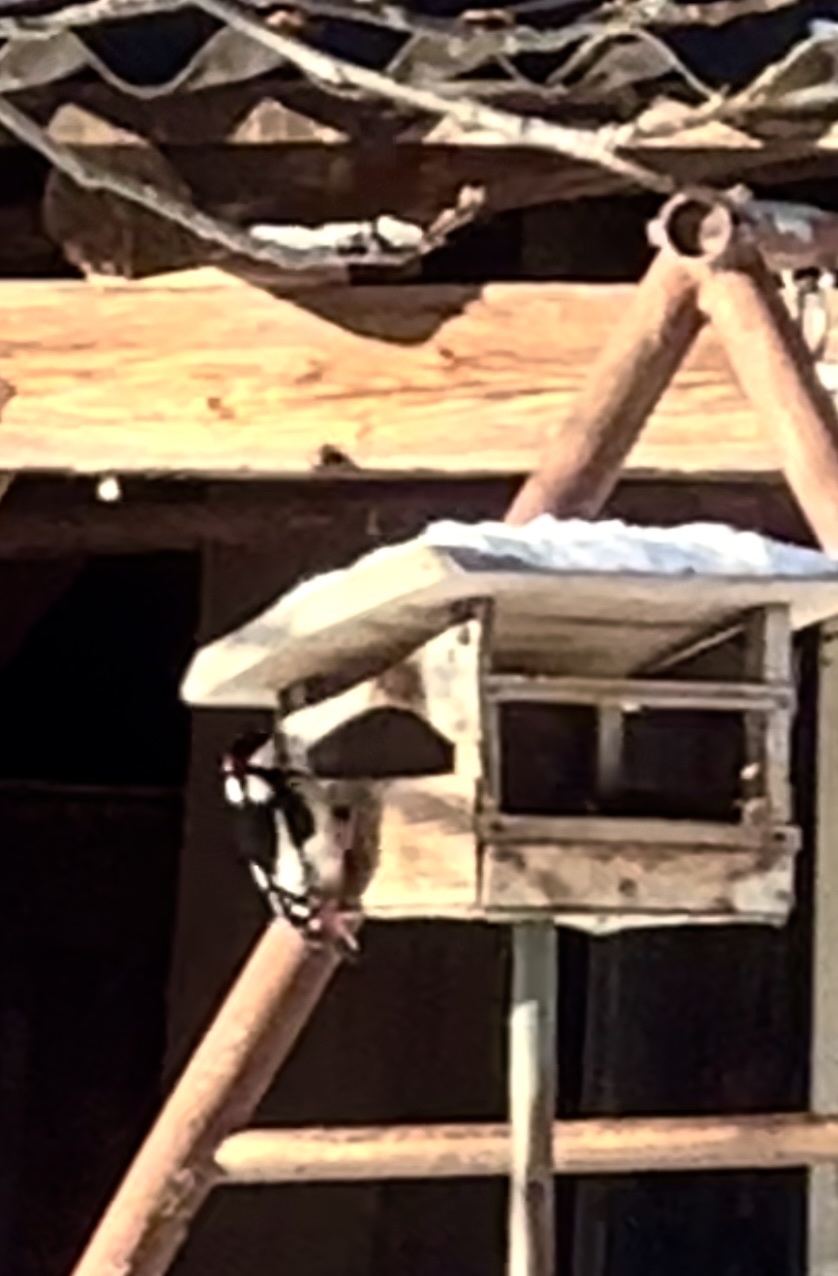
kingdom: Animalia
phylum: Chordata
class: Aves
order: Piciformes
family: Picidae
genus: Dendrocopos
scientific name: Dendrocopos major
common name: Great spotted woodpecker
